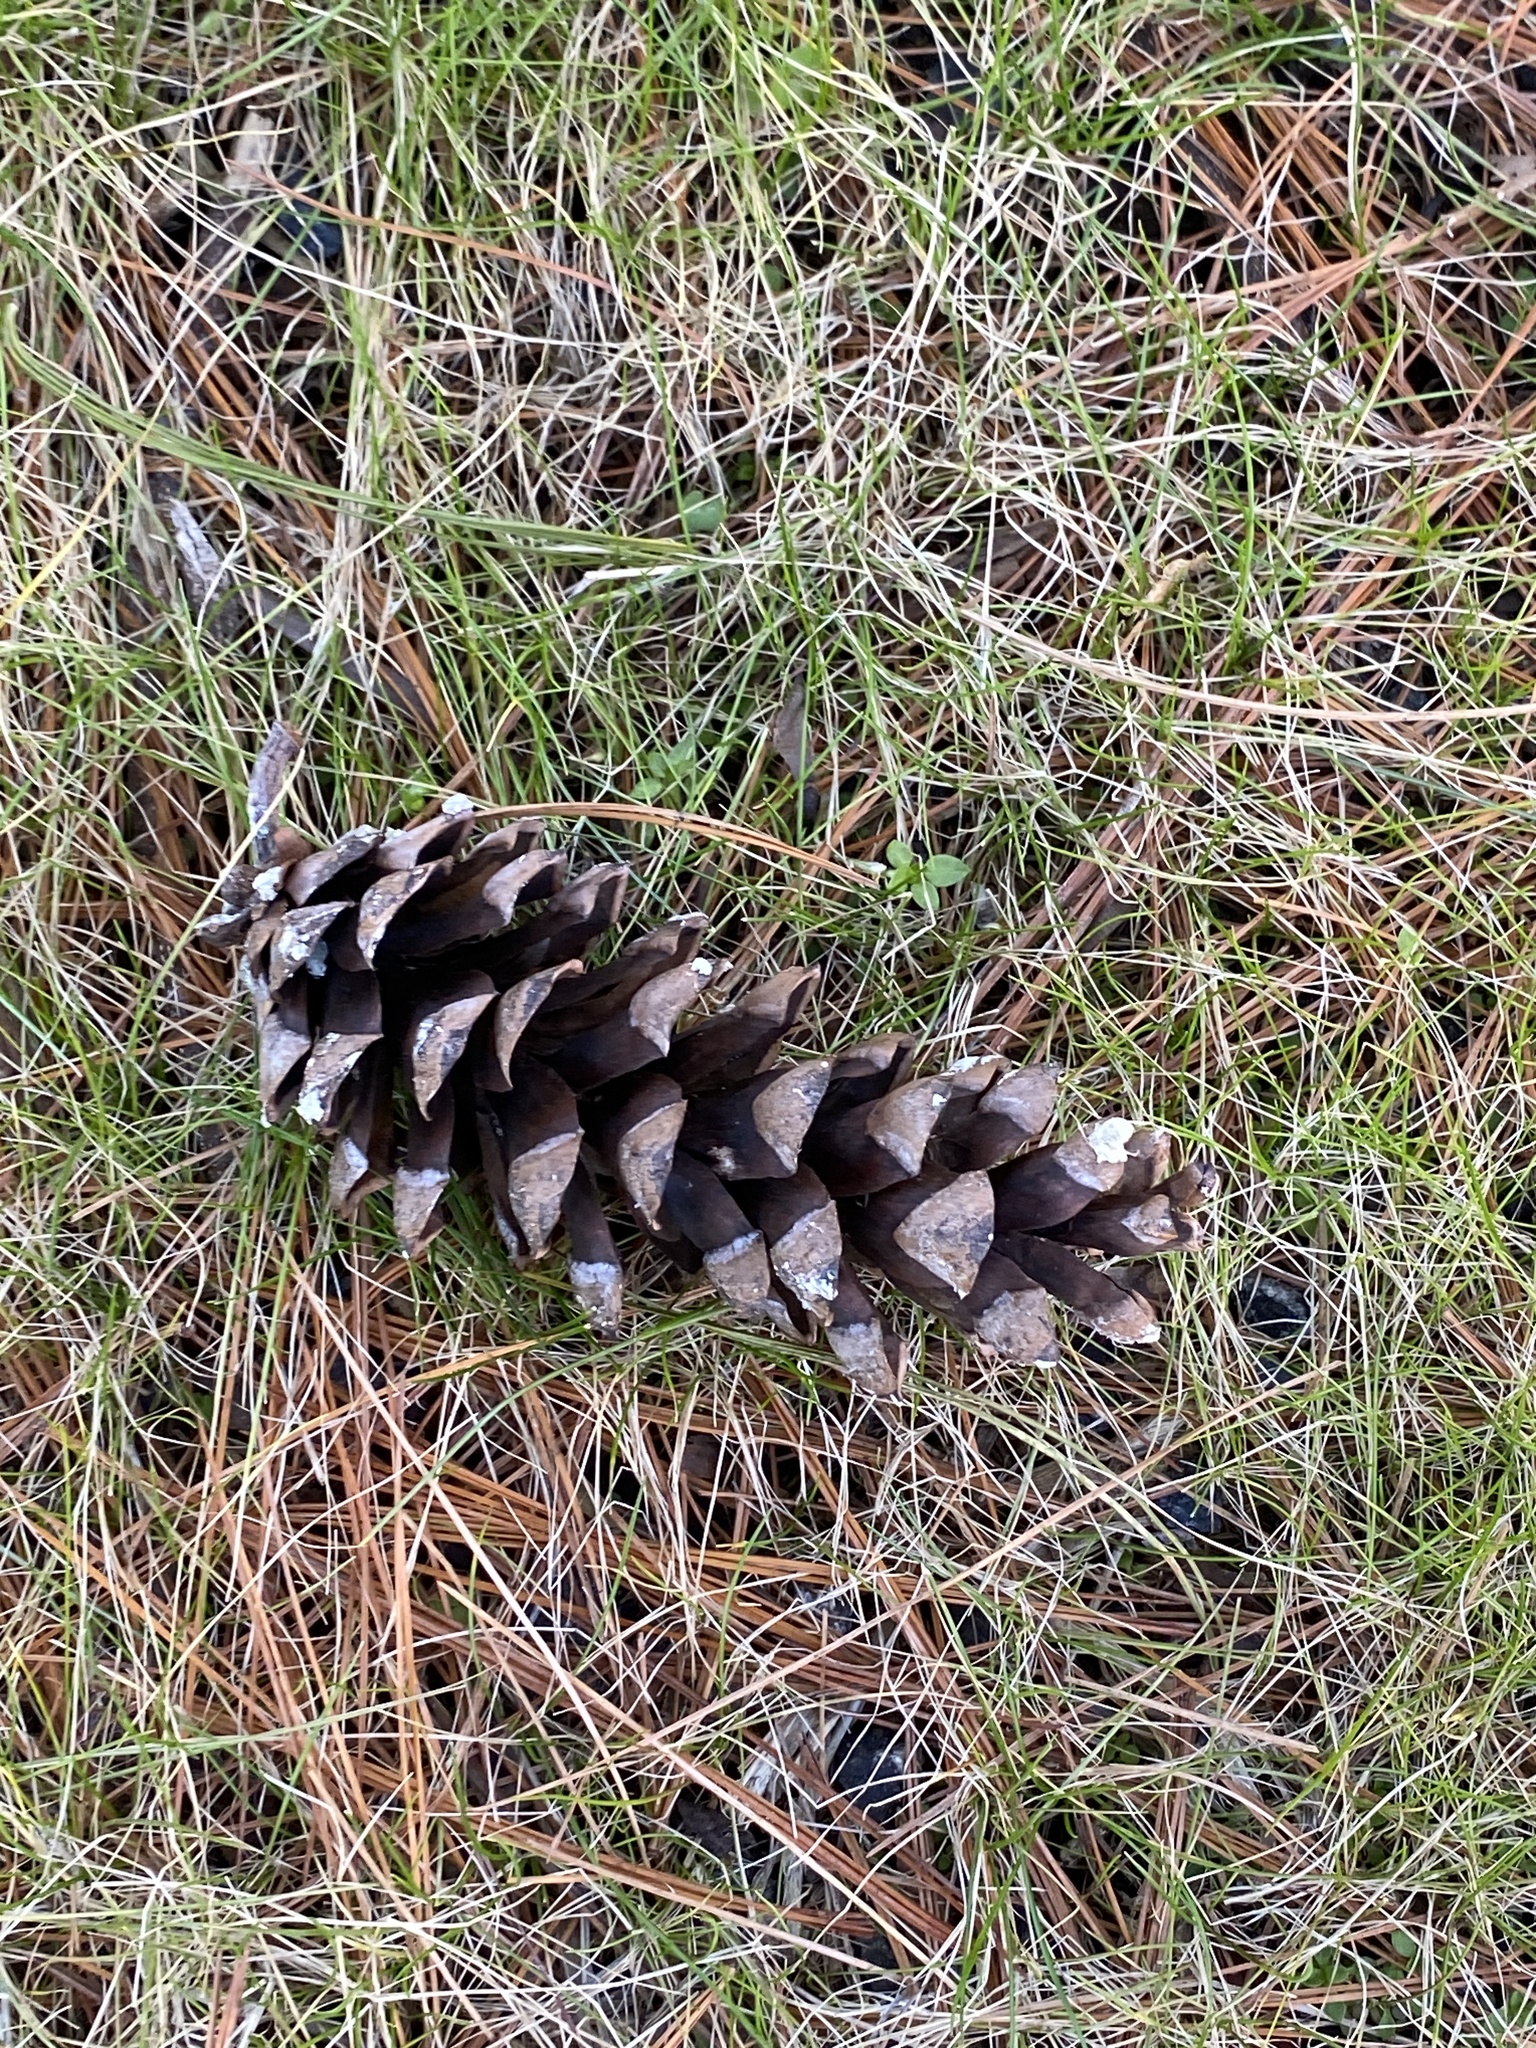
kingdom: Plantae
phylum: Tracheophyta
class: Pinopsida
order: Pinales
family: Pinaceae
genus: Pinus
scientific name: Pinus strobus
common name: Weymouth pine
